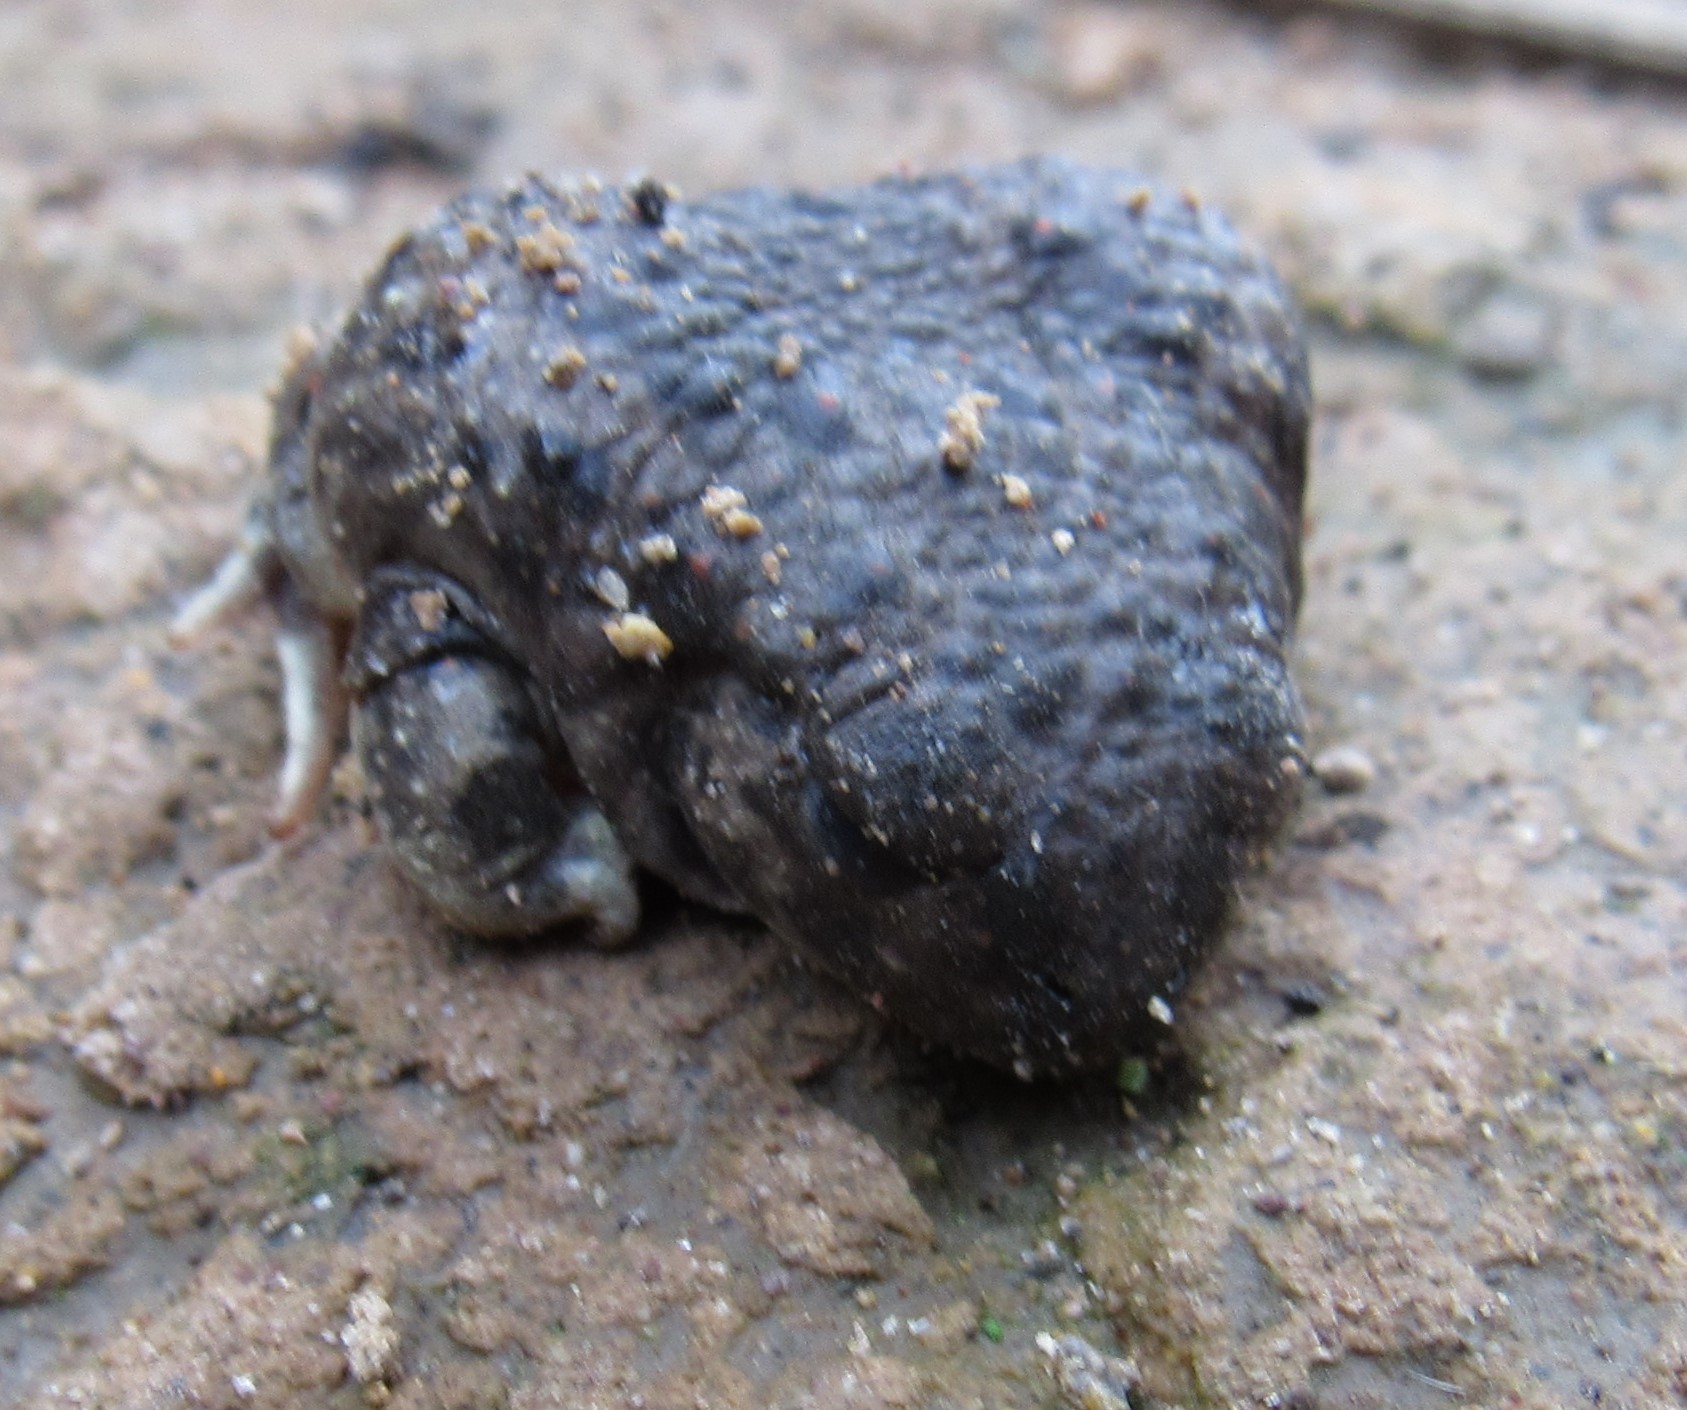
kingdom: Animalia
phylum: Chordata
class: Amphibia
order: Anura
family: Scaphiopodidae
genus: Spea
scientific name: Spea multiplicata
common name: Mexican spadefoot
